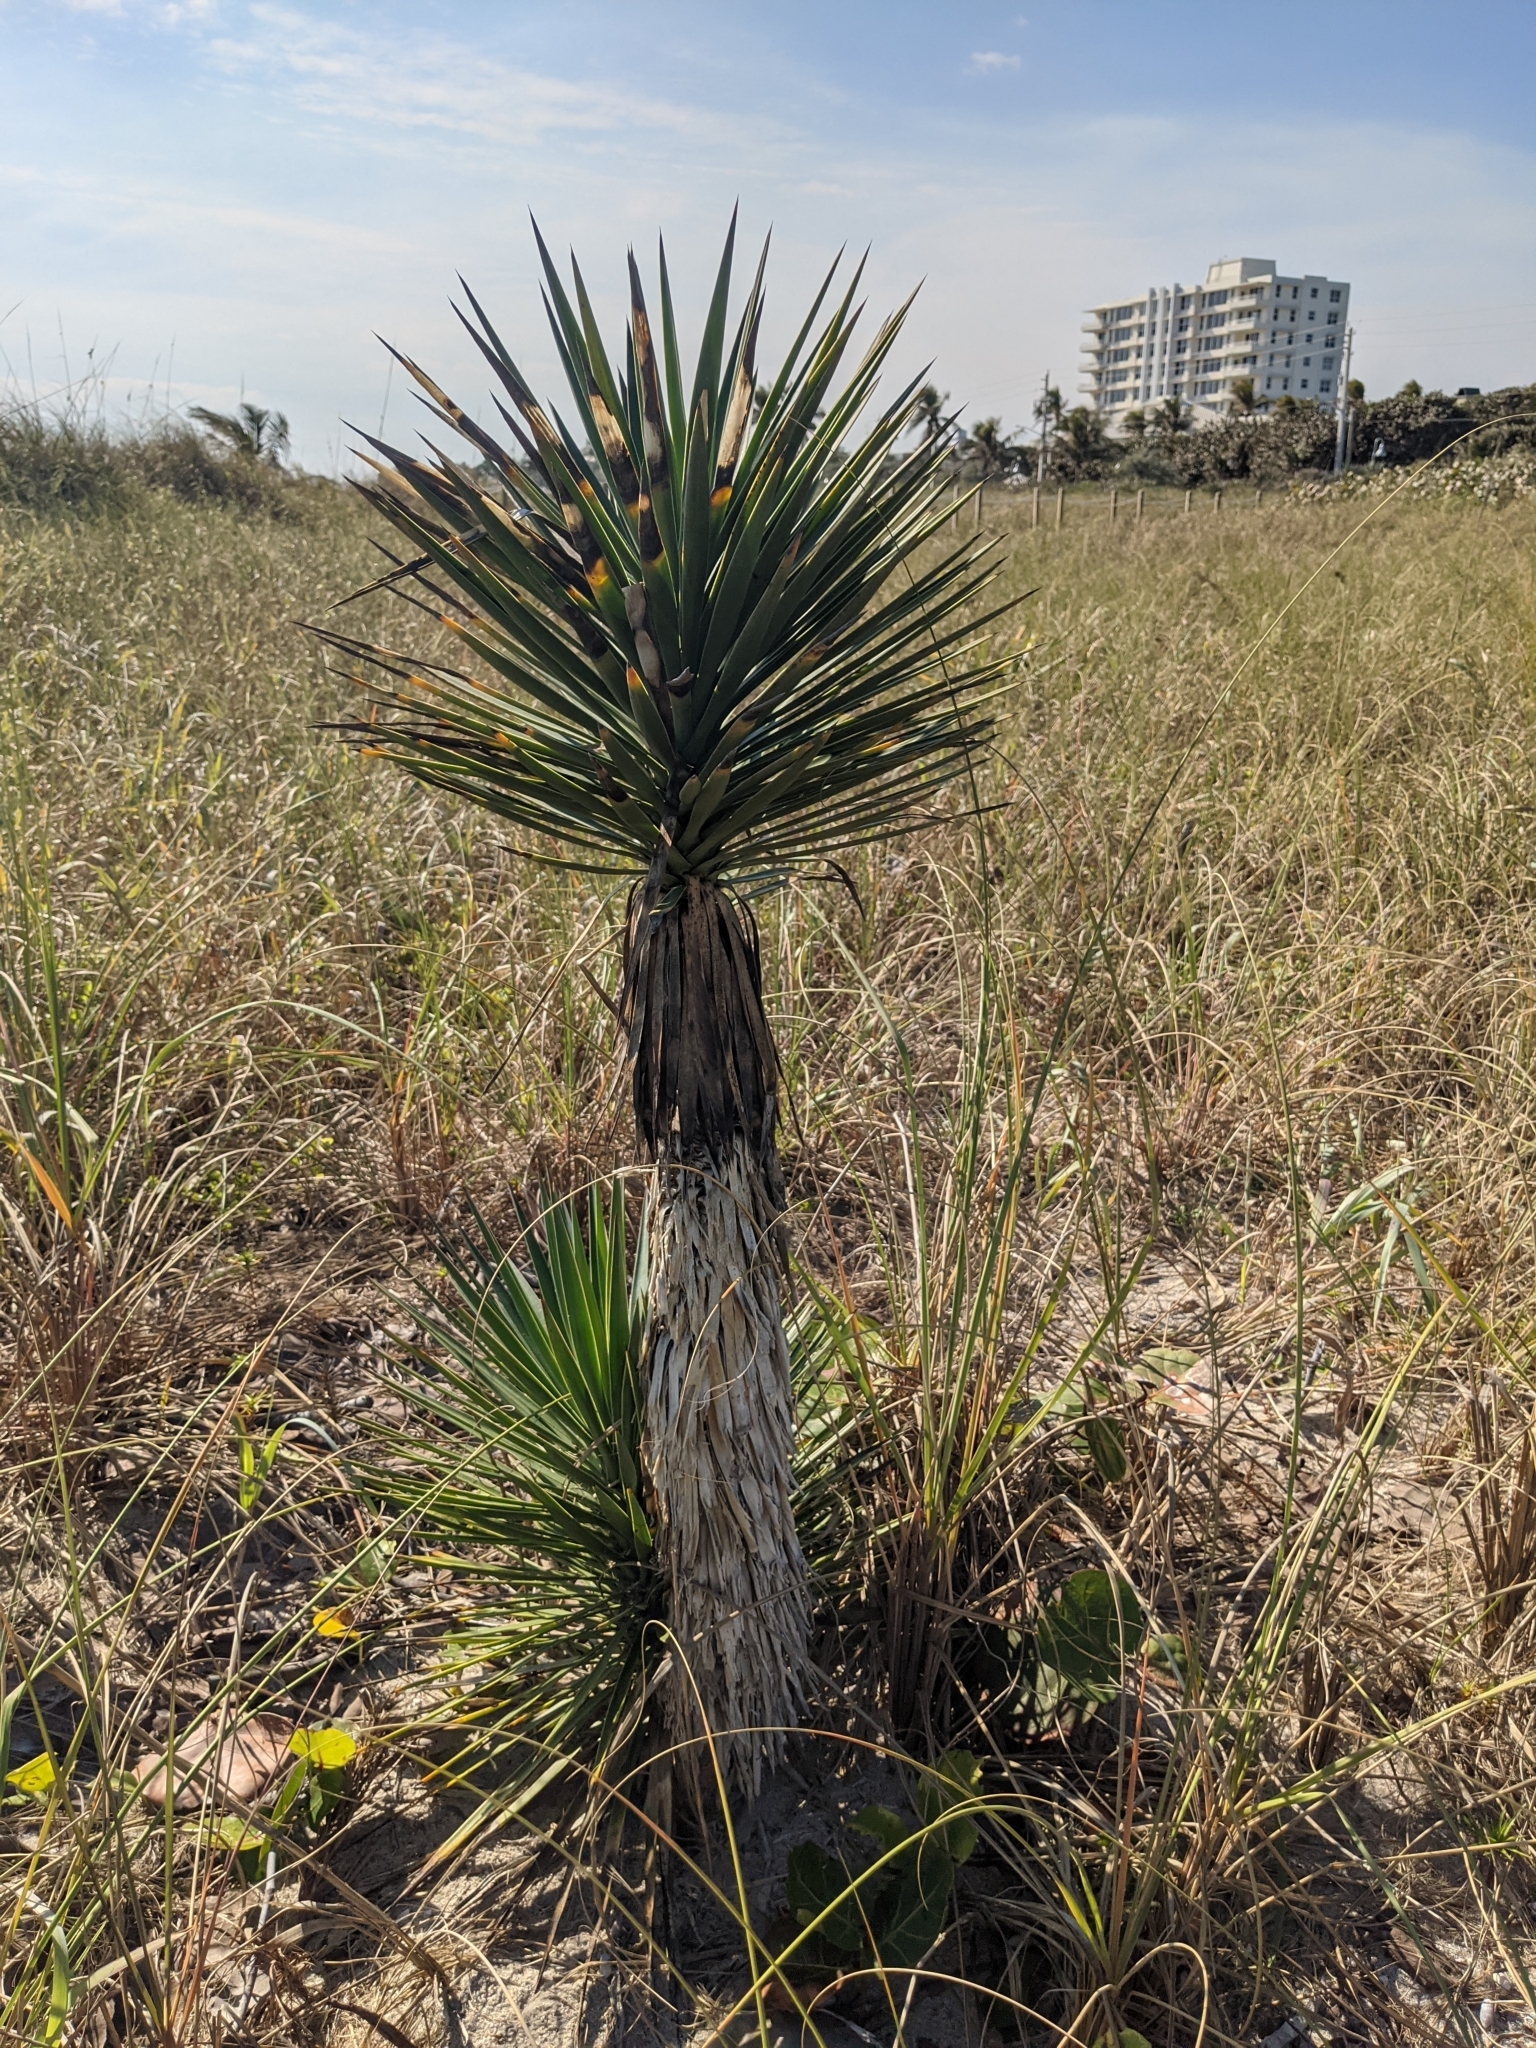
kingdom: Plantae
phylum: Tracheophyta
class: Liliopsida
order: Asparagales
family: Asparagaceae
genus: Yucca
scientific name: Yucca aloifolia
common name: Aloe yucca
